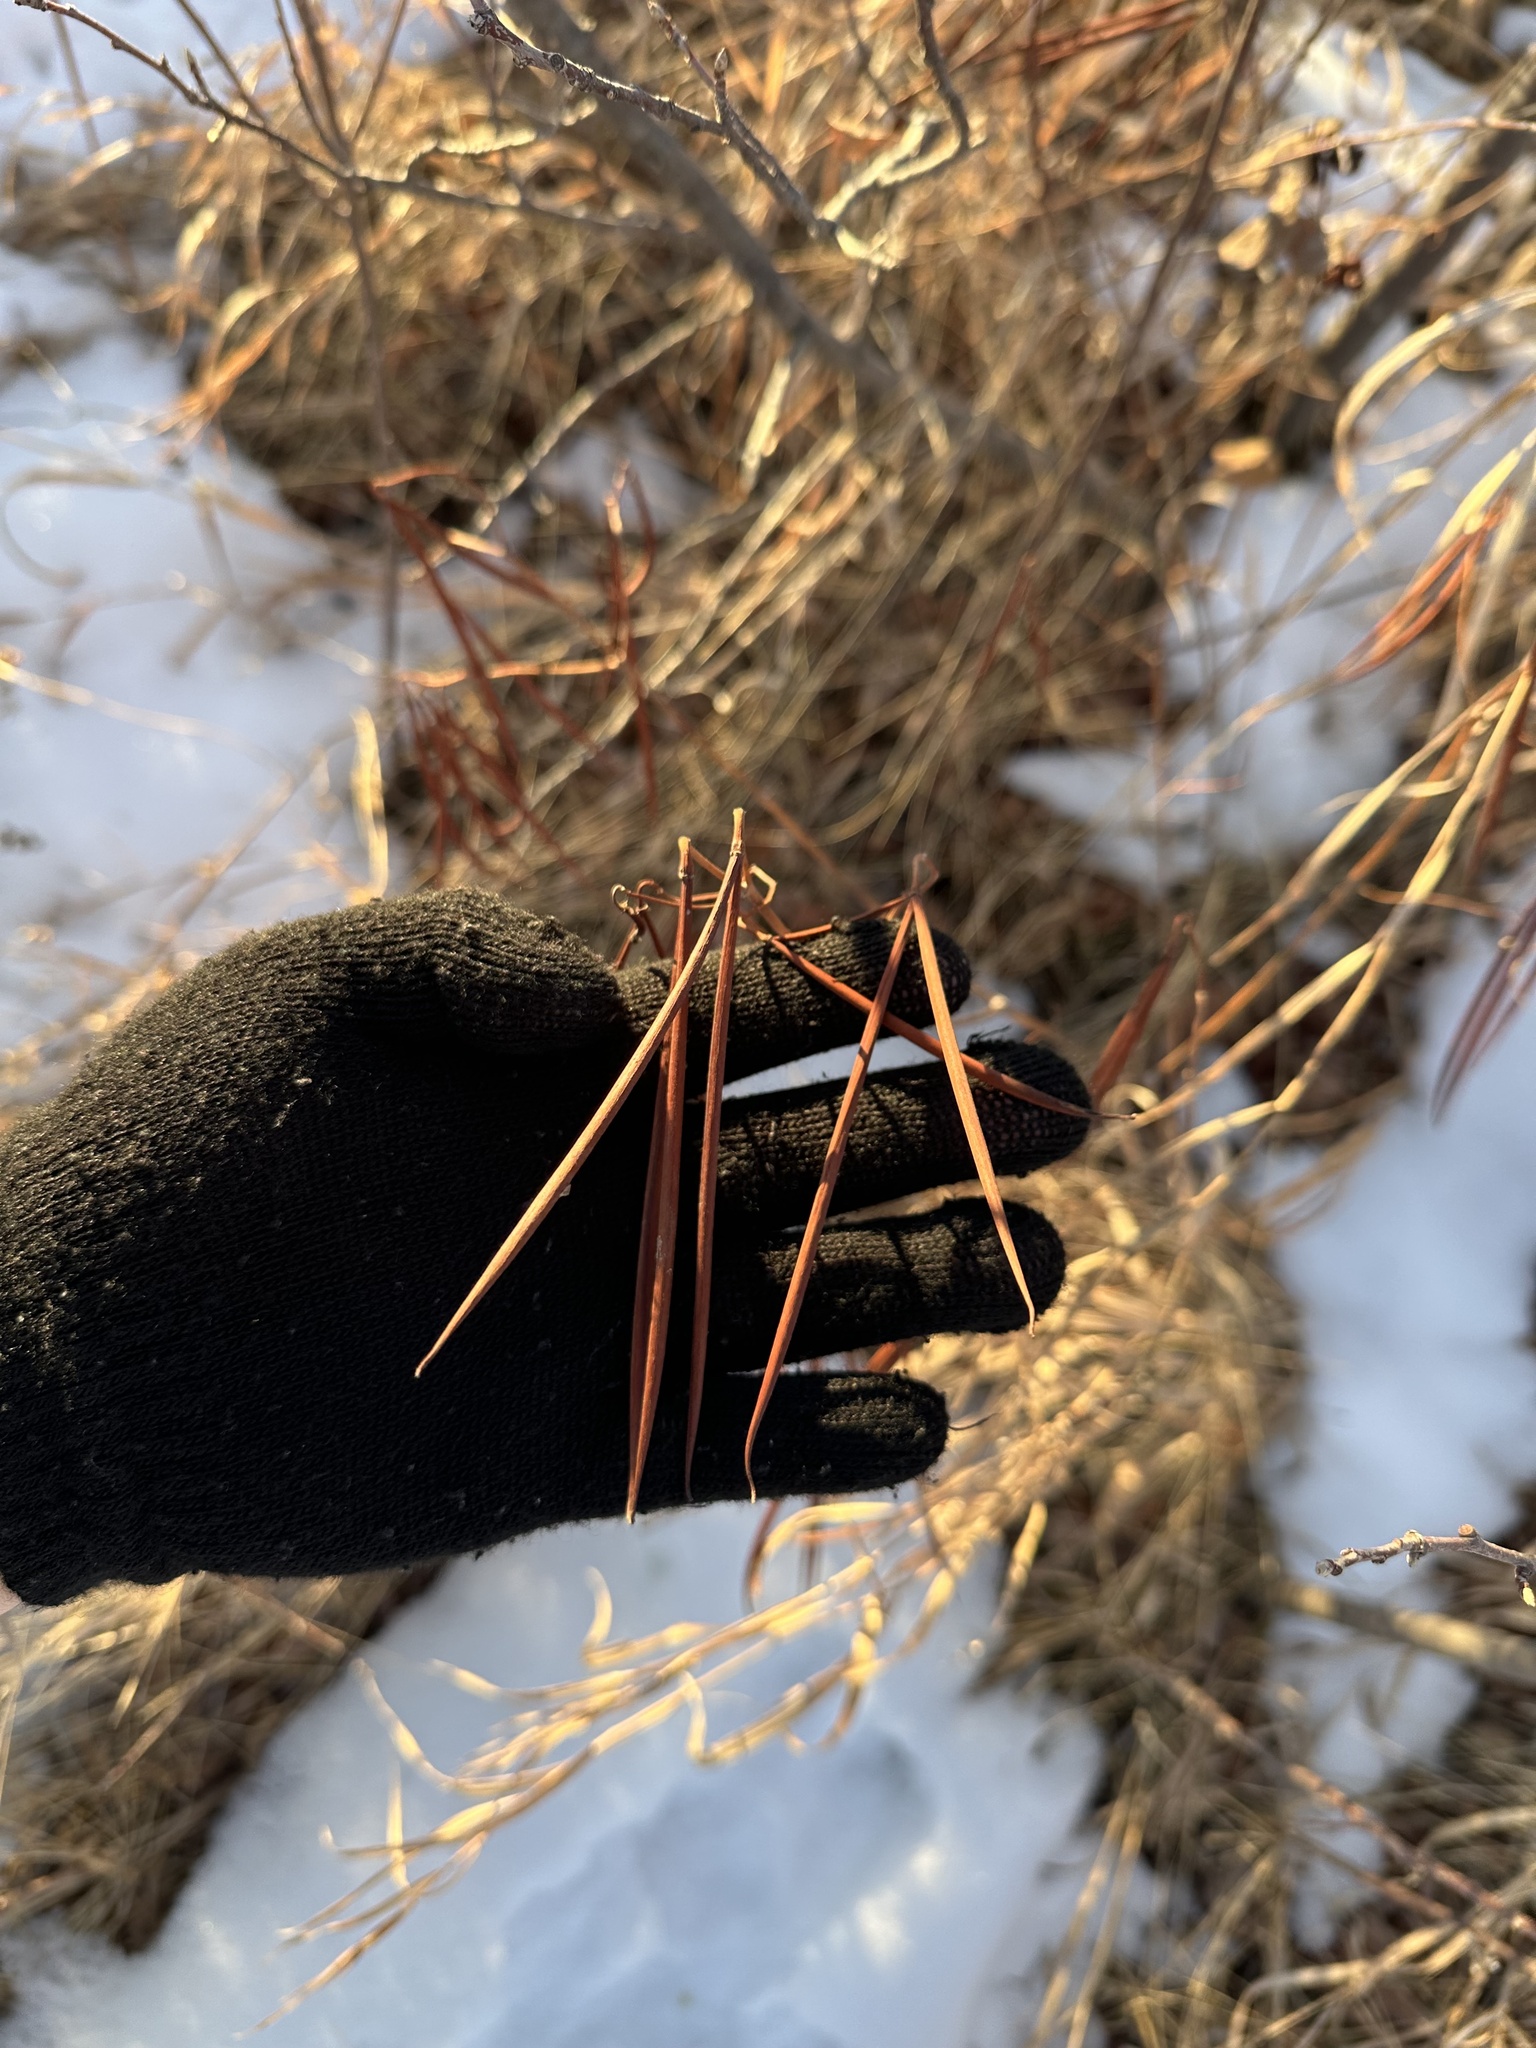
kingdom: Plantae
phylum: Tracheophyta
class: Magnoliopsida
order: Gentianales
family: Apocynaceae
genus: Apocynum
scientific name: Apocynum androsaemifolium
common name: Spreading dogbane
